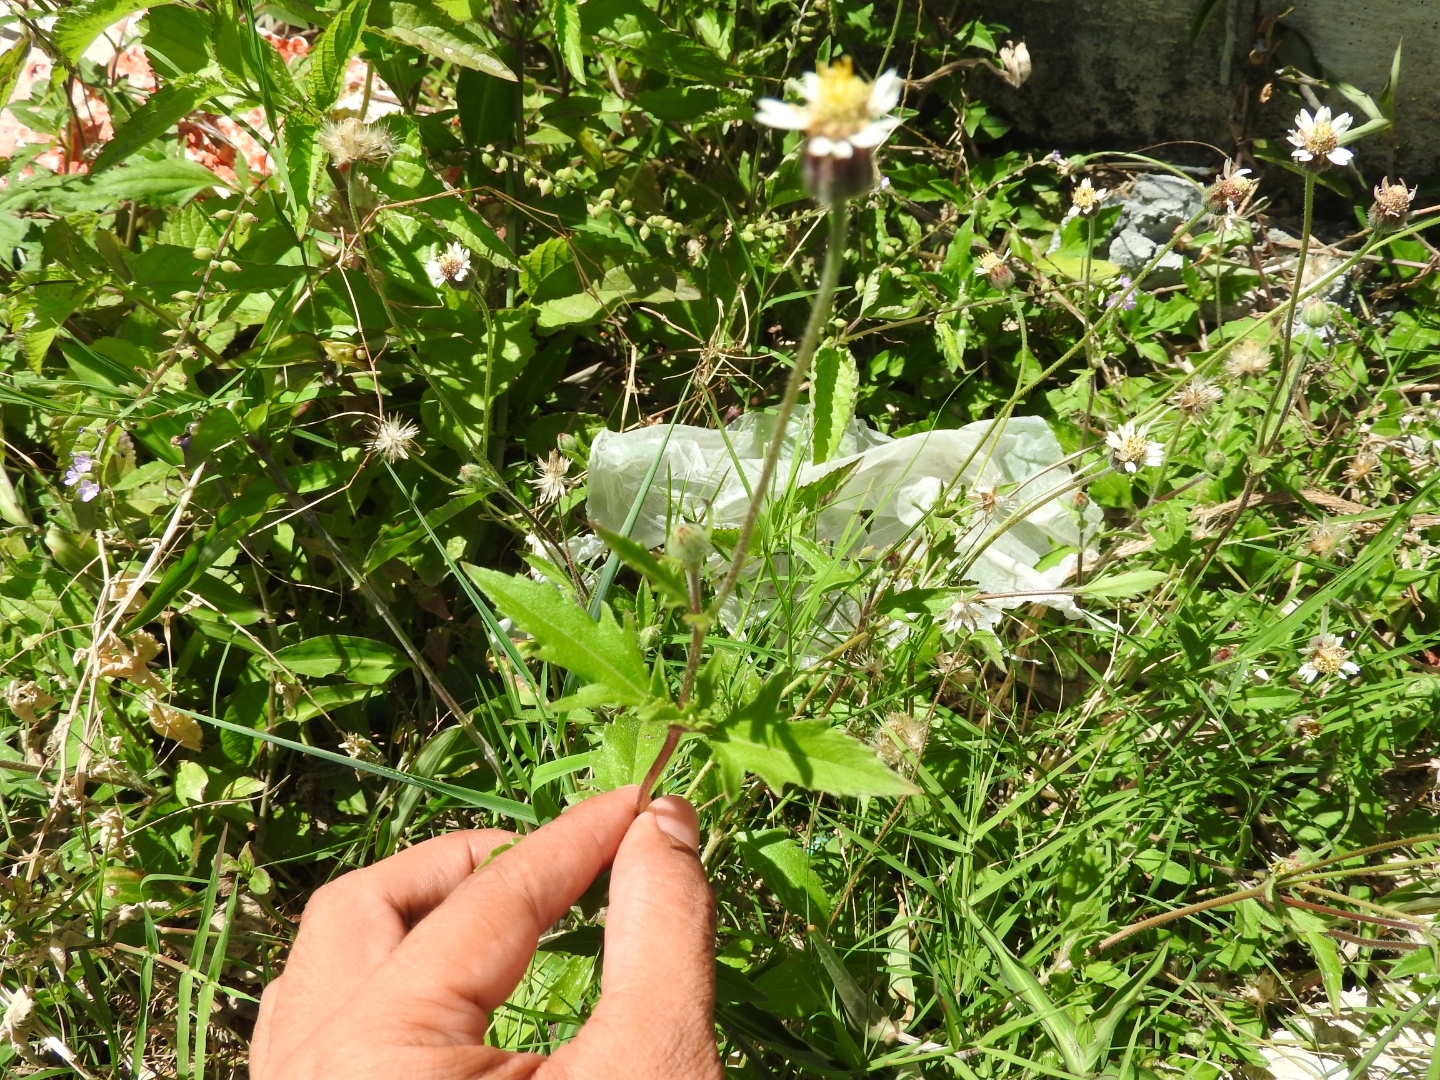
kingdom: Plantae
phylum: Tracheophyta
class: Magnoliopsida
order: Asterales
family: Asteraceae
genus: Tridax
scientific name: Tridax procumbens
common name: Coatbuttons
